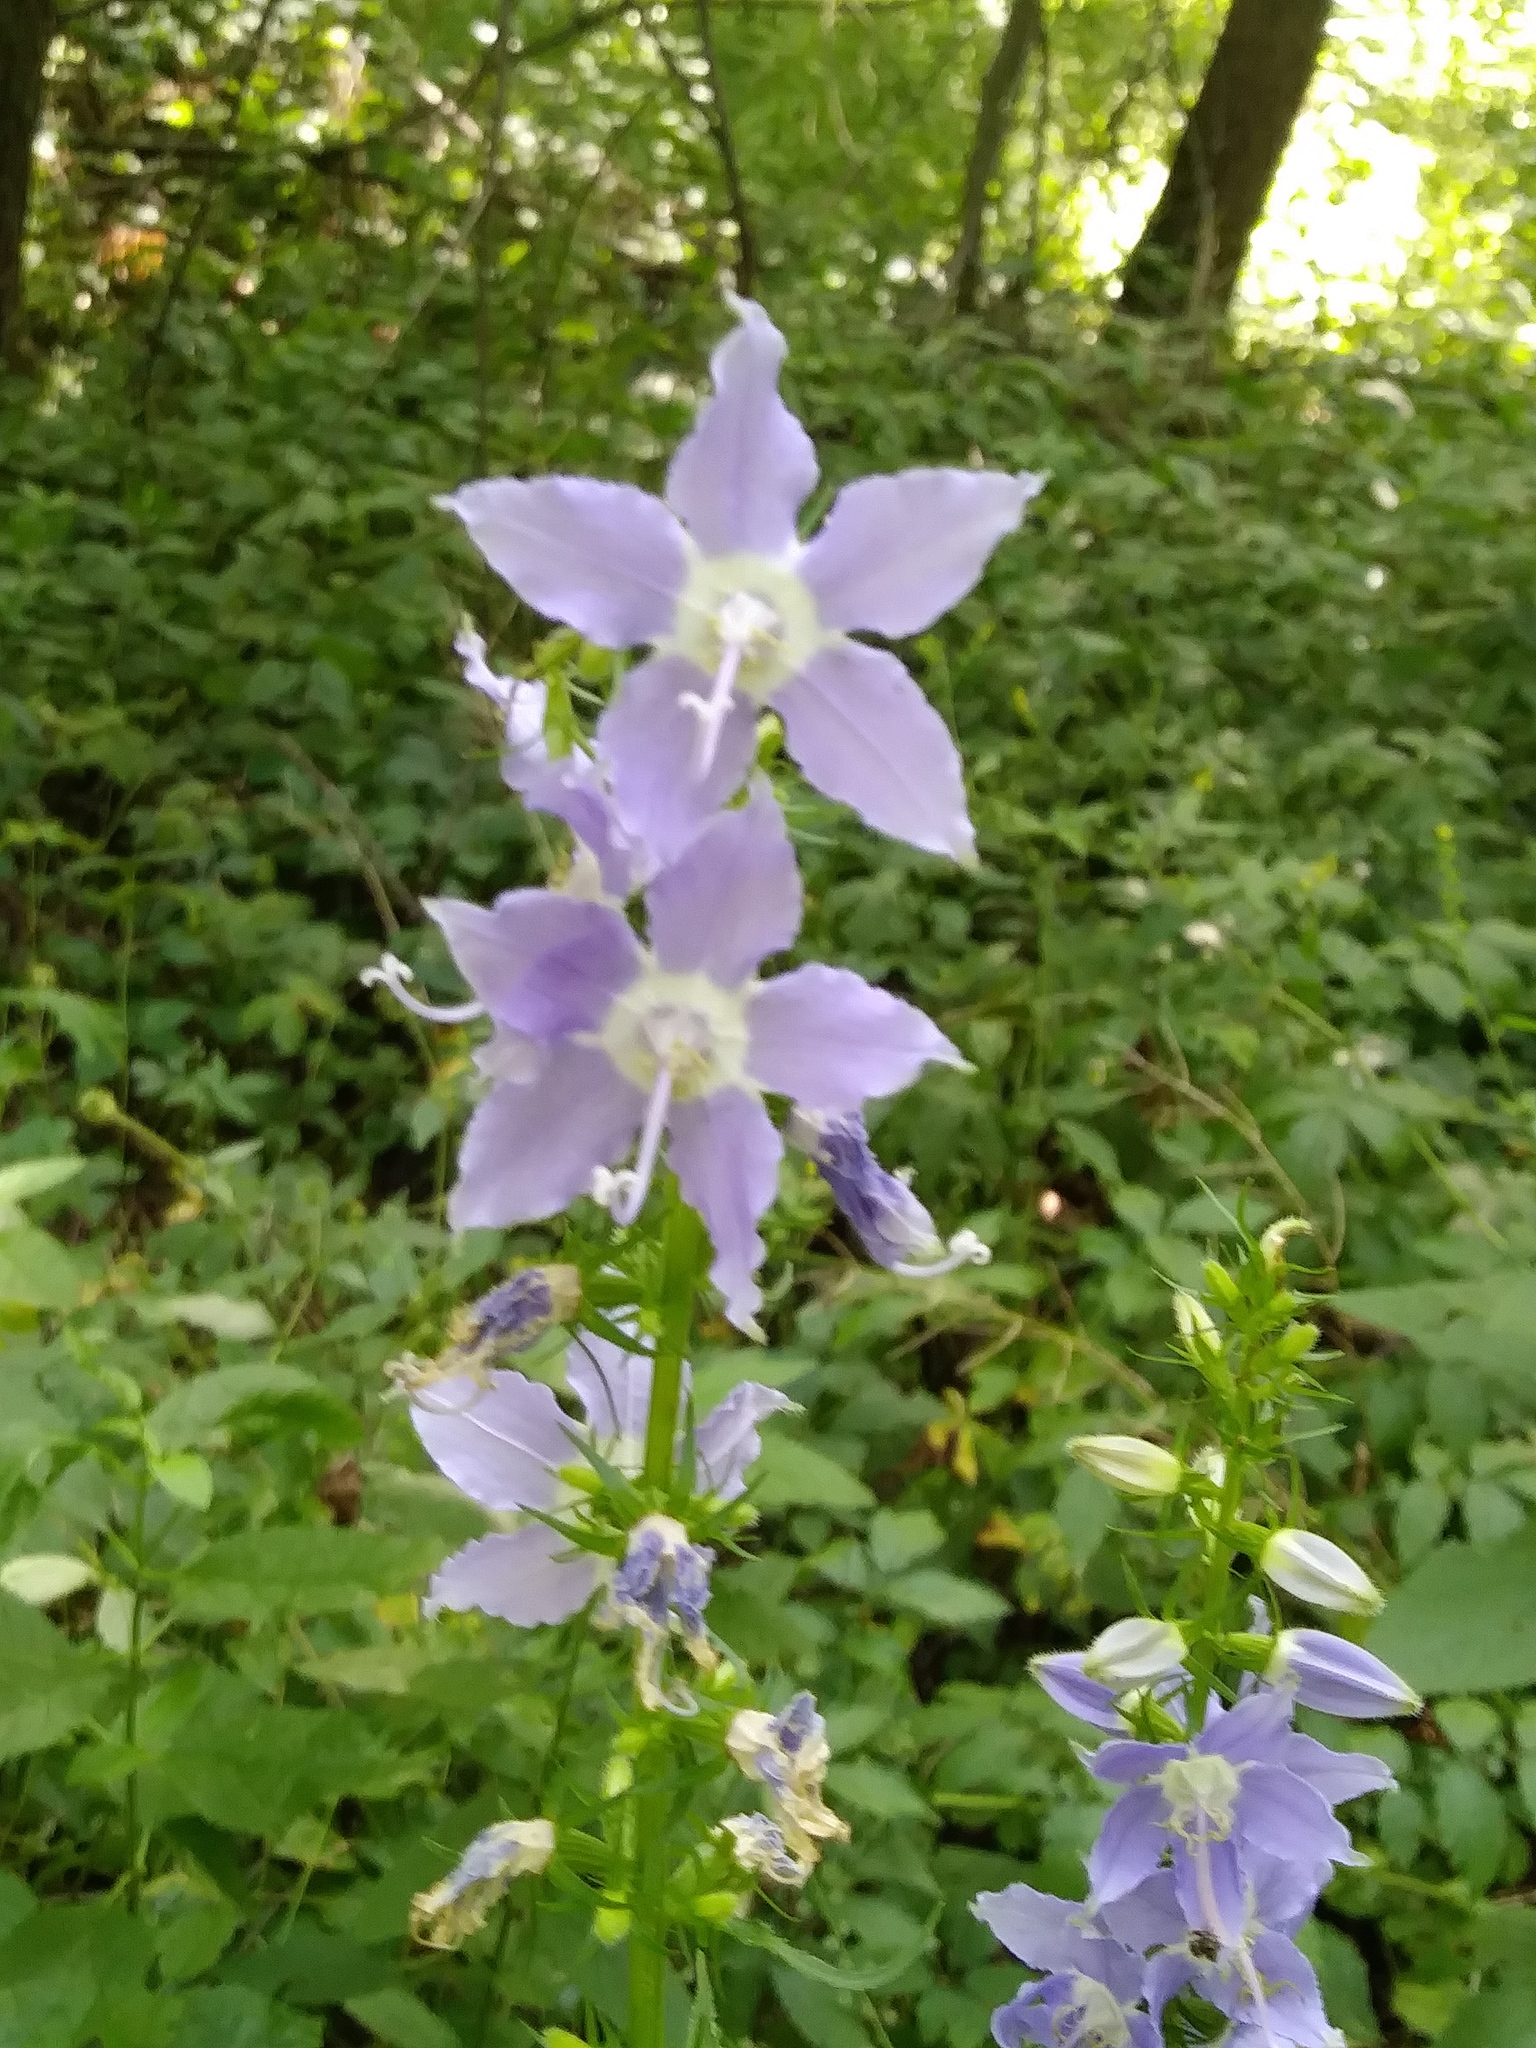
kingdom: Plantae
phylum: Tracheophyta
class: Magnoliopsida
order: Asterales
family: Campanulaceae
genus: Campanulastrum
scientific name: Campanulastrum americanum
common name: American bellflower
